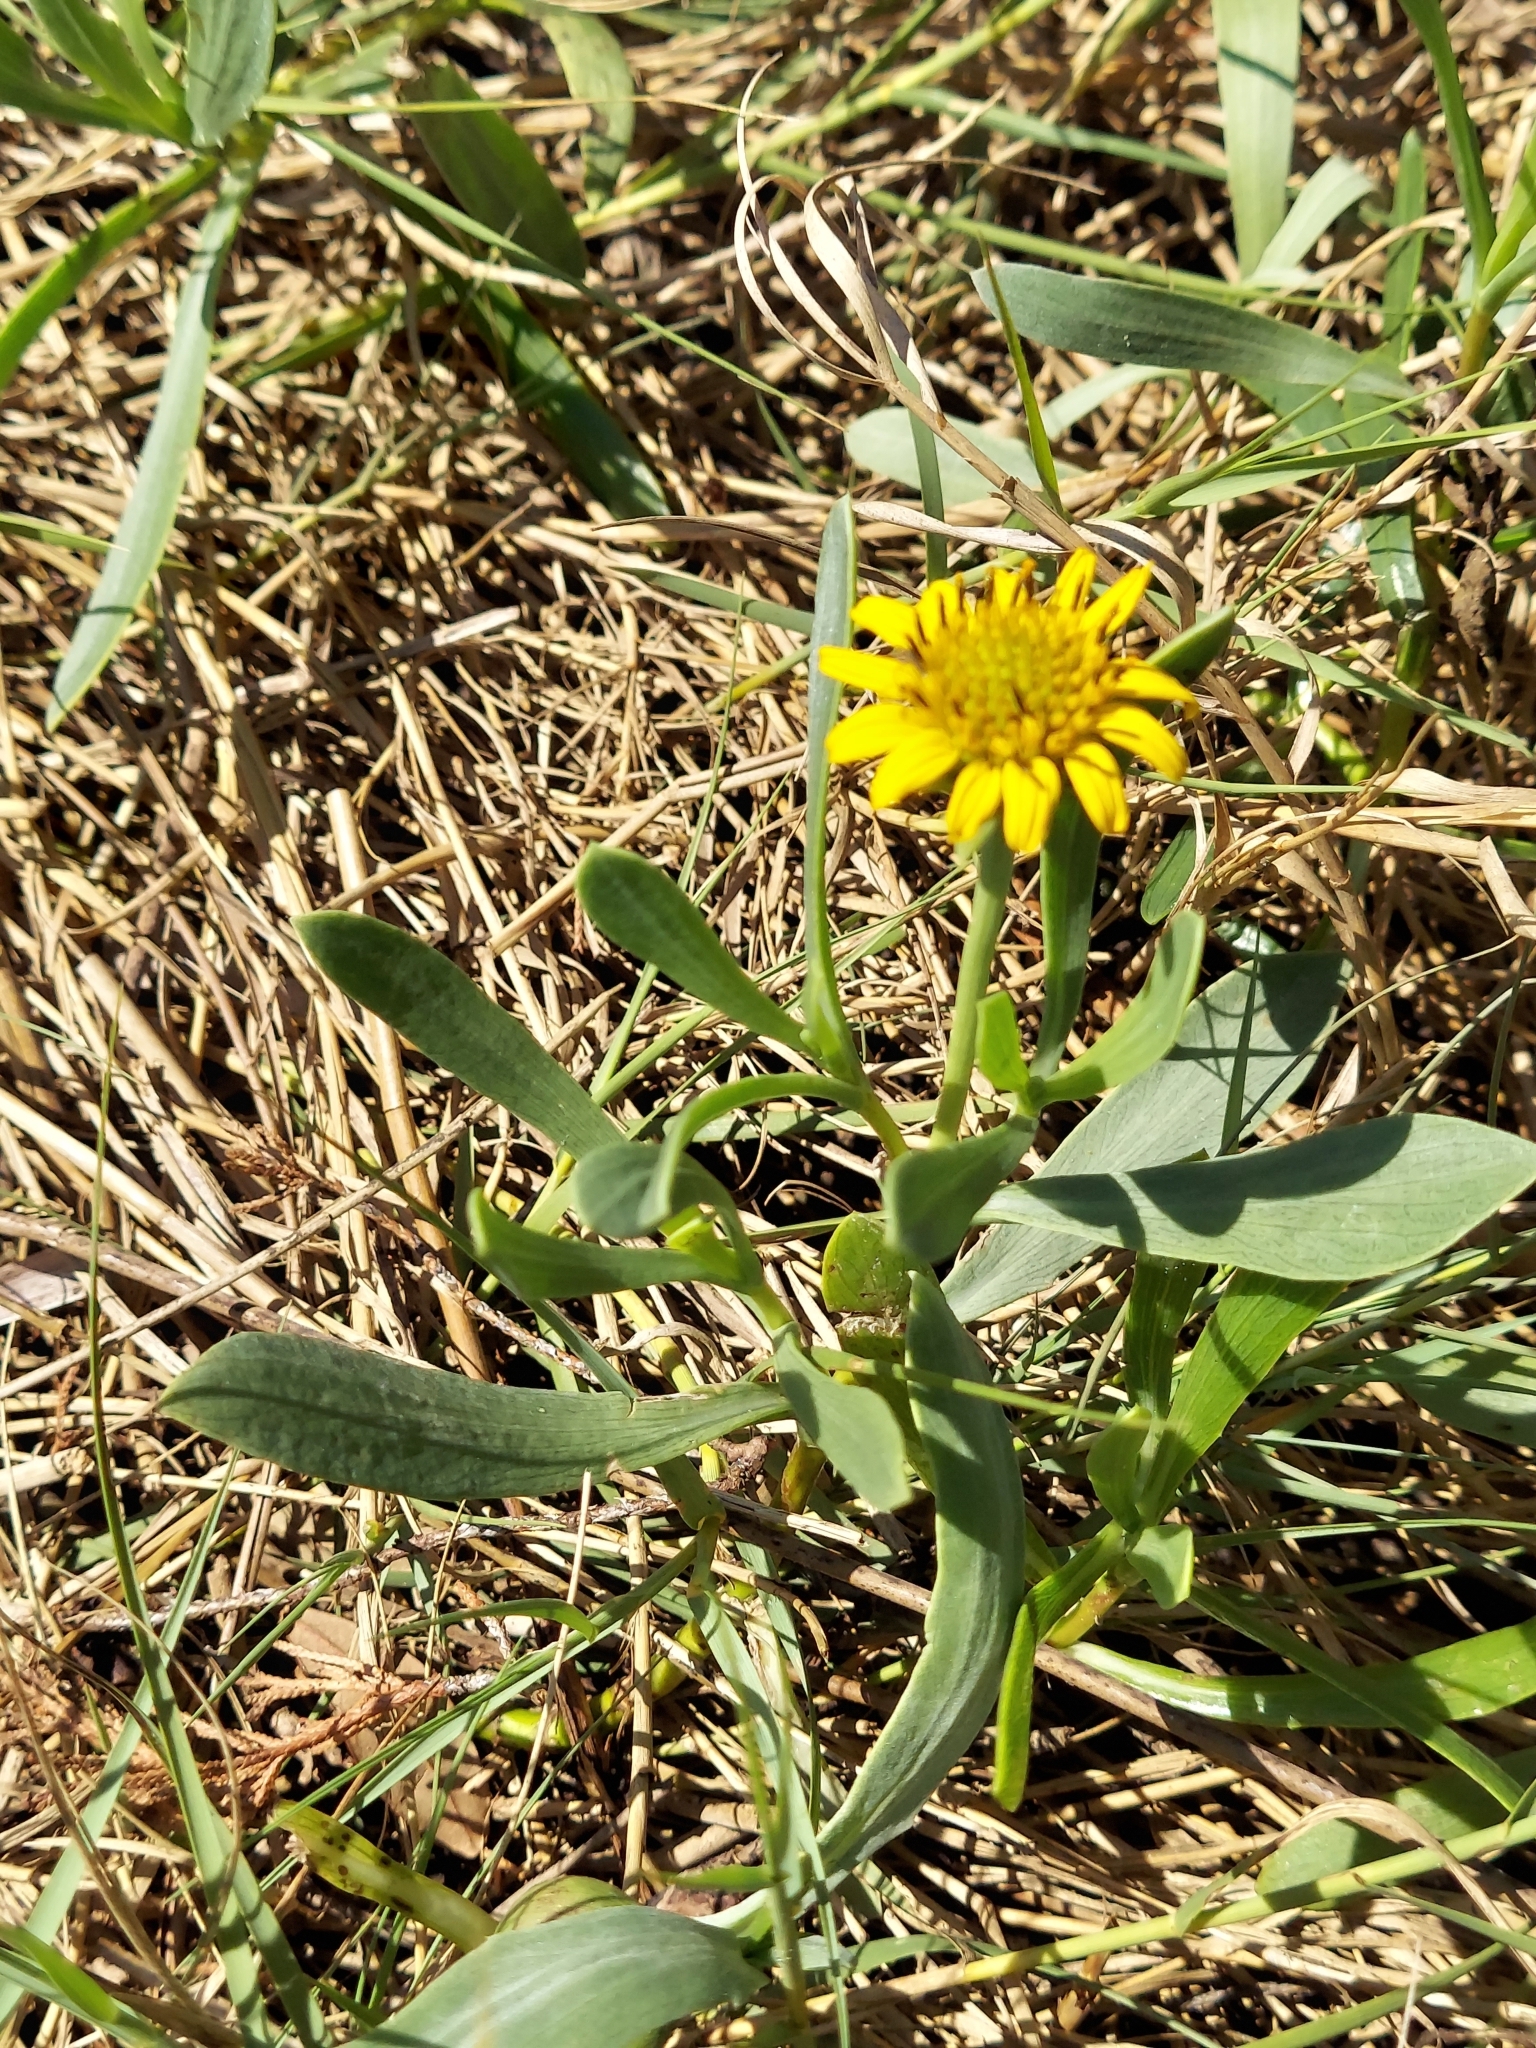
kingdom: Plantae
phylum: Tracheophyta
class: Magnoliopsida
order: Asterales
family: Asteraceae
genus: Borrichia
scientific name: Borrichia frutescens
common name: Sea oxeye
